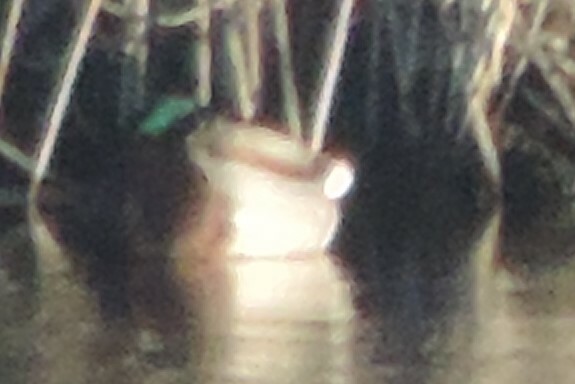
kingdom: Animalia
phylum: Chordata
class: Aves
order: Anseriformes
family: Anatidae
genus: Anas
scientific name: Anas platyrhynchos
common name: Mallard
